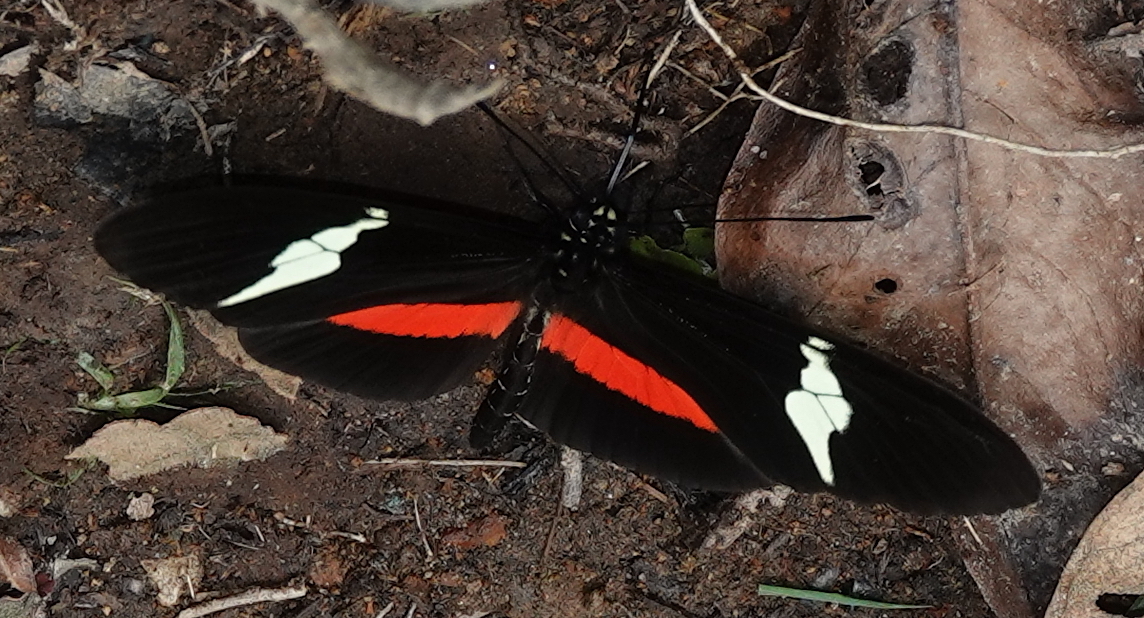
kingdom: Animalia
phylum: Arthropoda
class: Insecta
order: Lepidoptera
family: Nymphalidae
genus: Heliconius
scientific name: Heliconius clysonymus
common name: Clysonymus longwing
